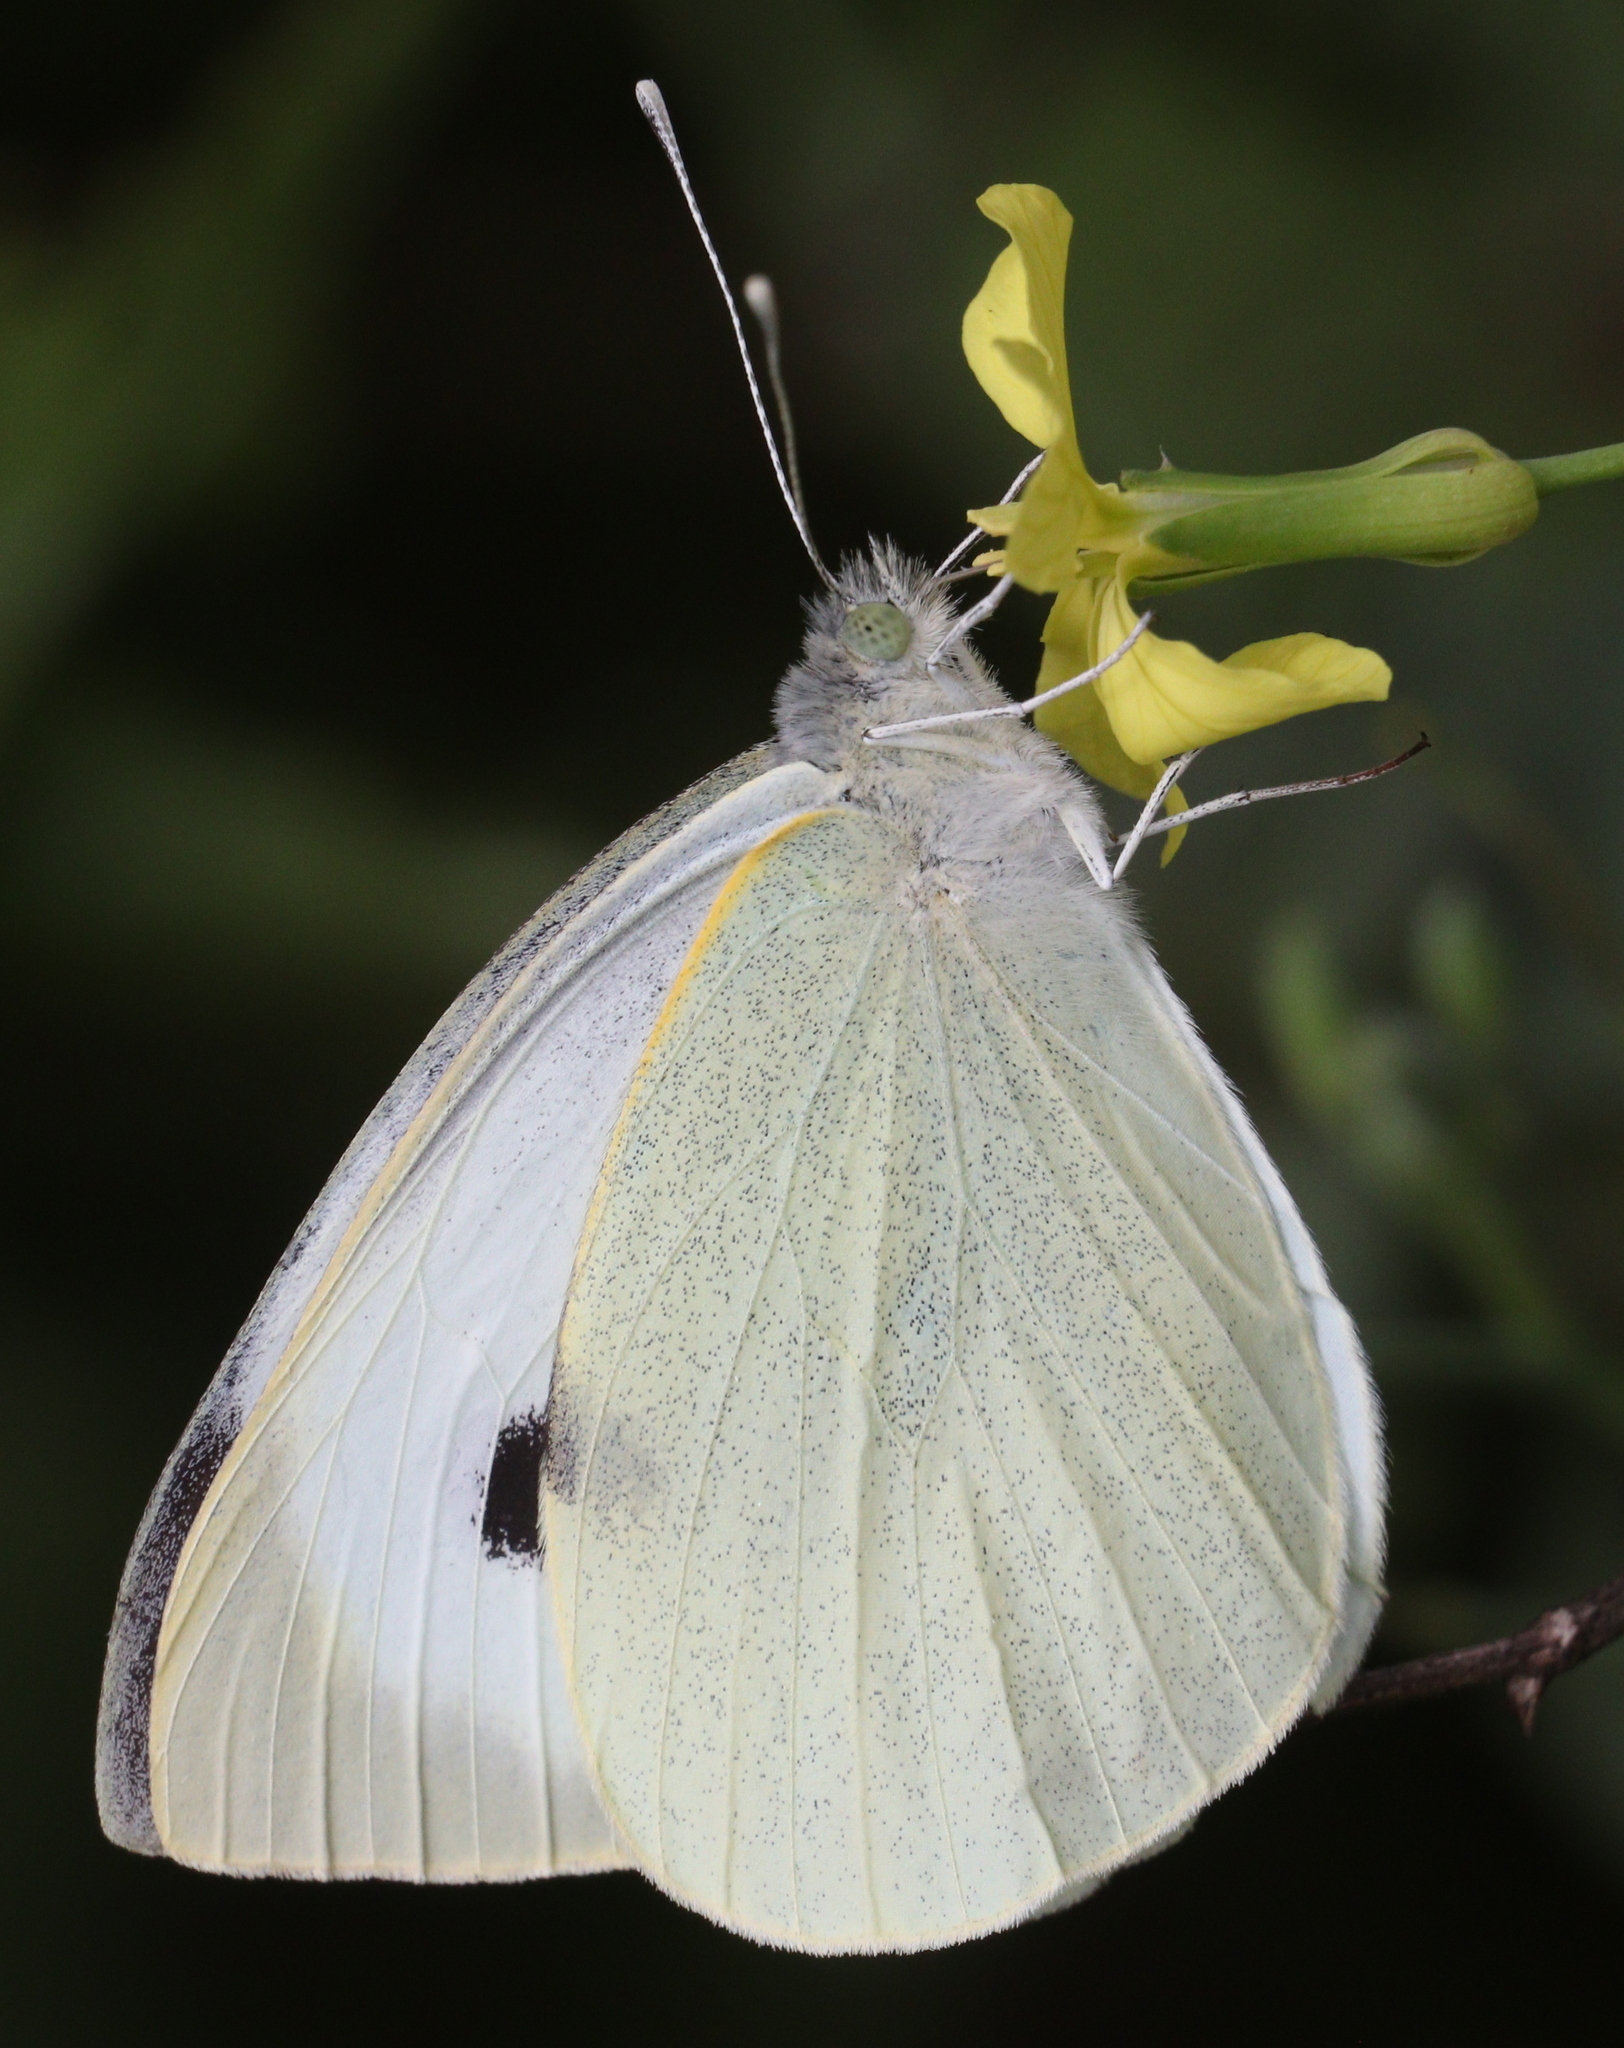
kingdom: Animalia
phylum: Arthropoda
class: Insecta
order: Lepidoptera
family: Pieridae
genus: Pieris
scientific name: Pieris brassicae
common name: Large white
